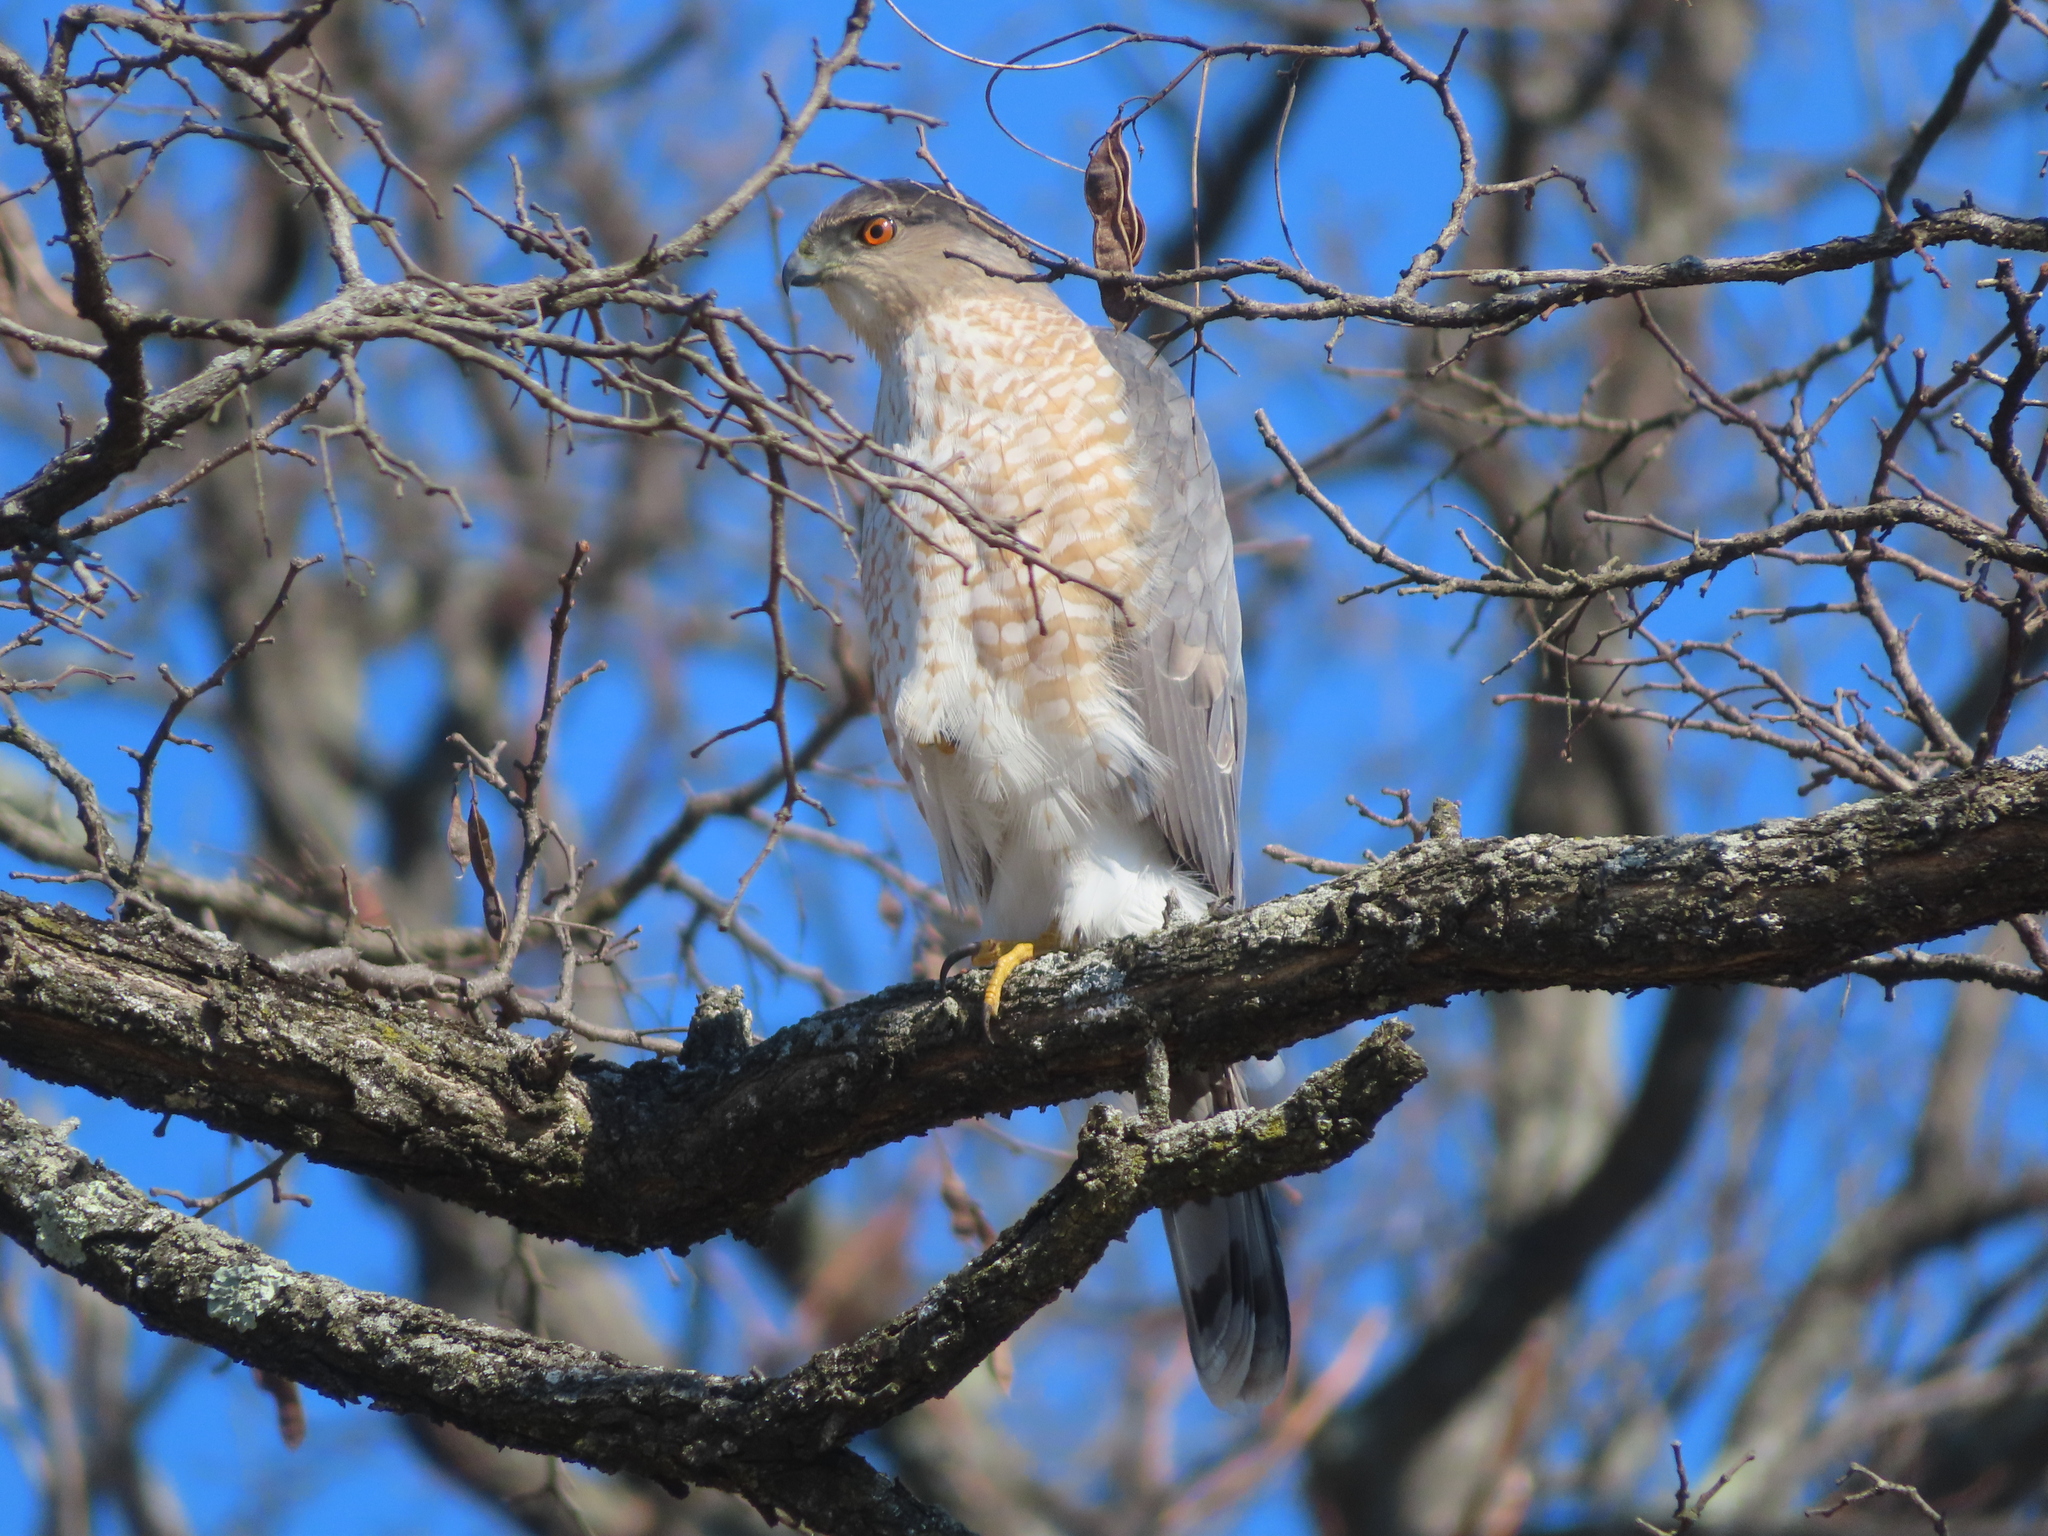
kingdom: Animalia
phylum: Chordata
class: Aves
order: Accipitriformes
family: Accipitridae
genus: Accipiter
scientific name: Accipiter cooperii
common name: Cooper's hawk
